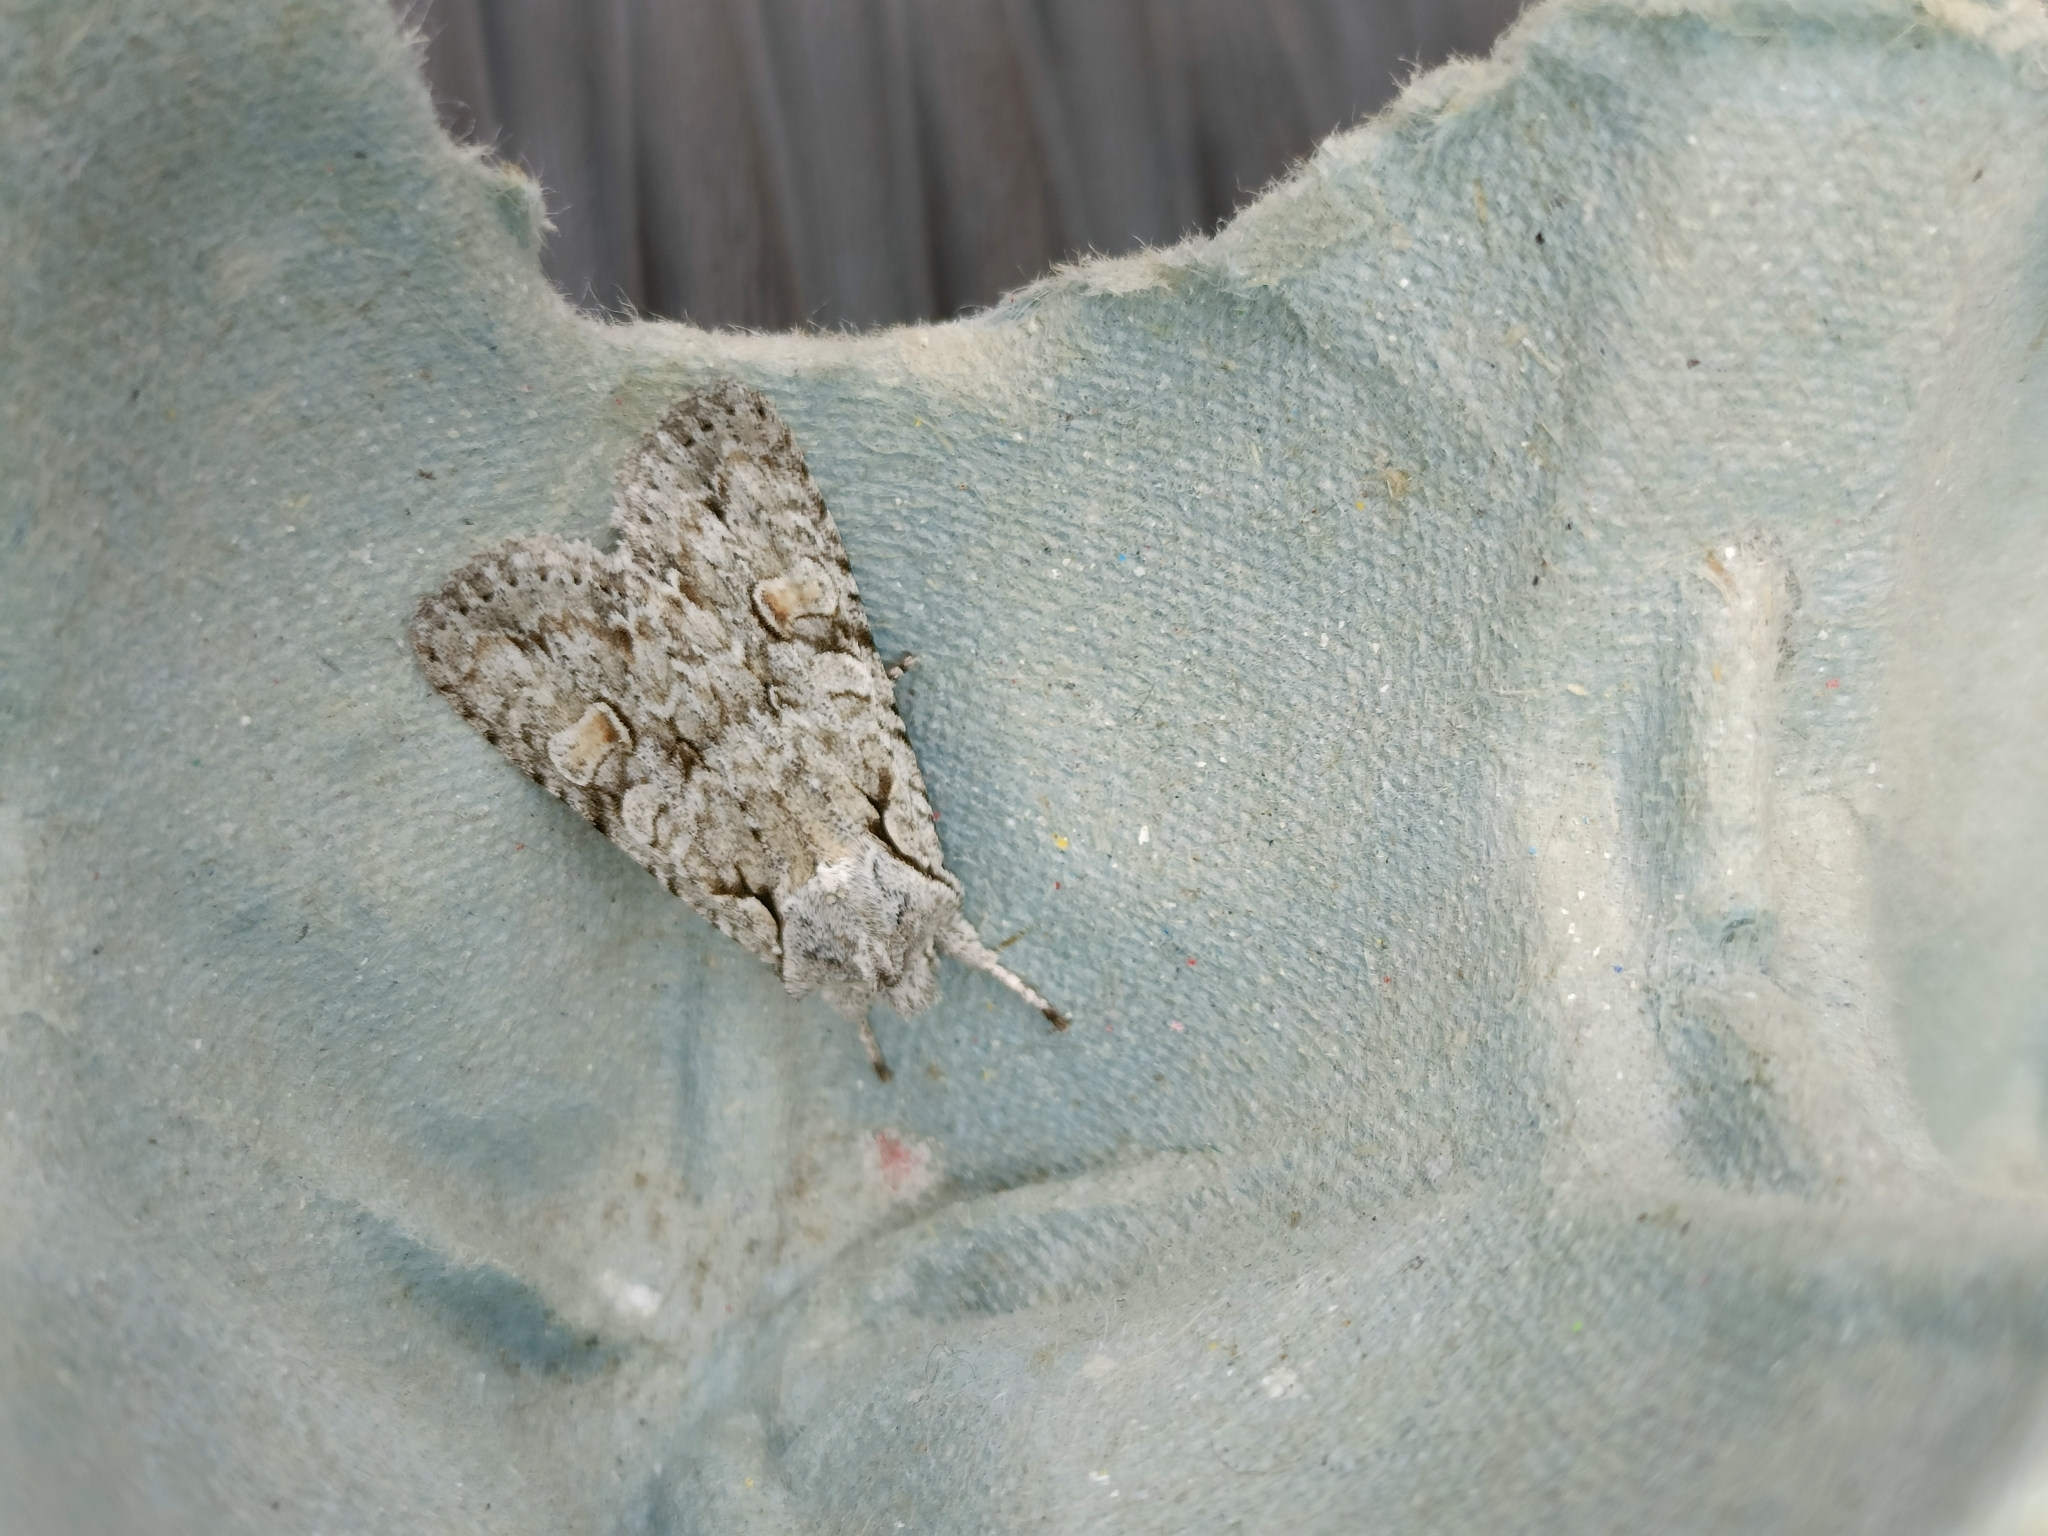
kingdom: Animalia
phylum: Arthropoda
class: Insecta
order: Lepidoptera
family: Noctuidae
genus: Lithophane
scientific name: Lithophane ornitopus
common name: Grey shoulder-knot
